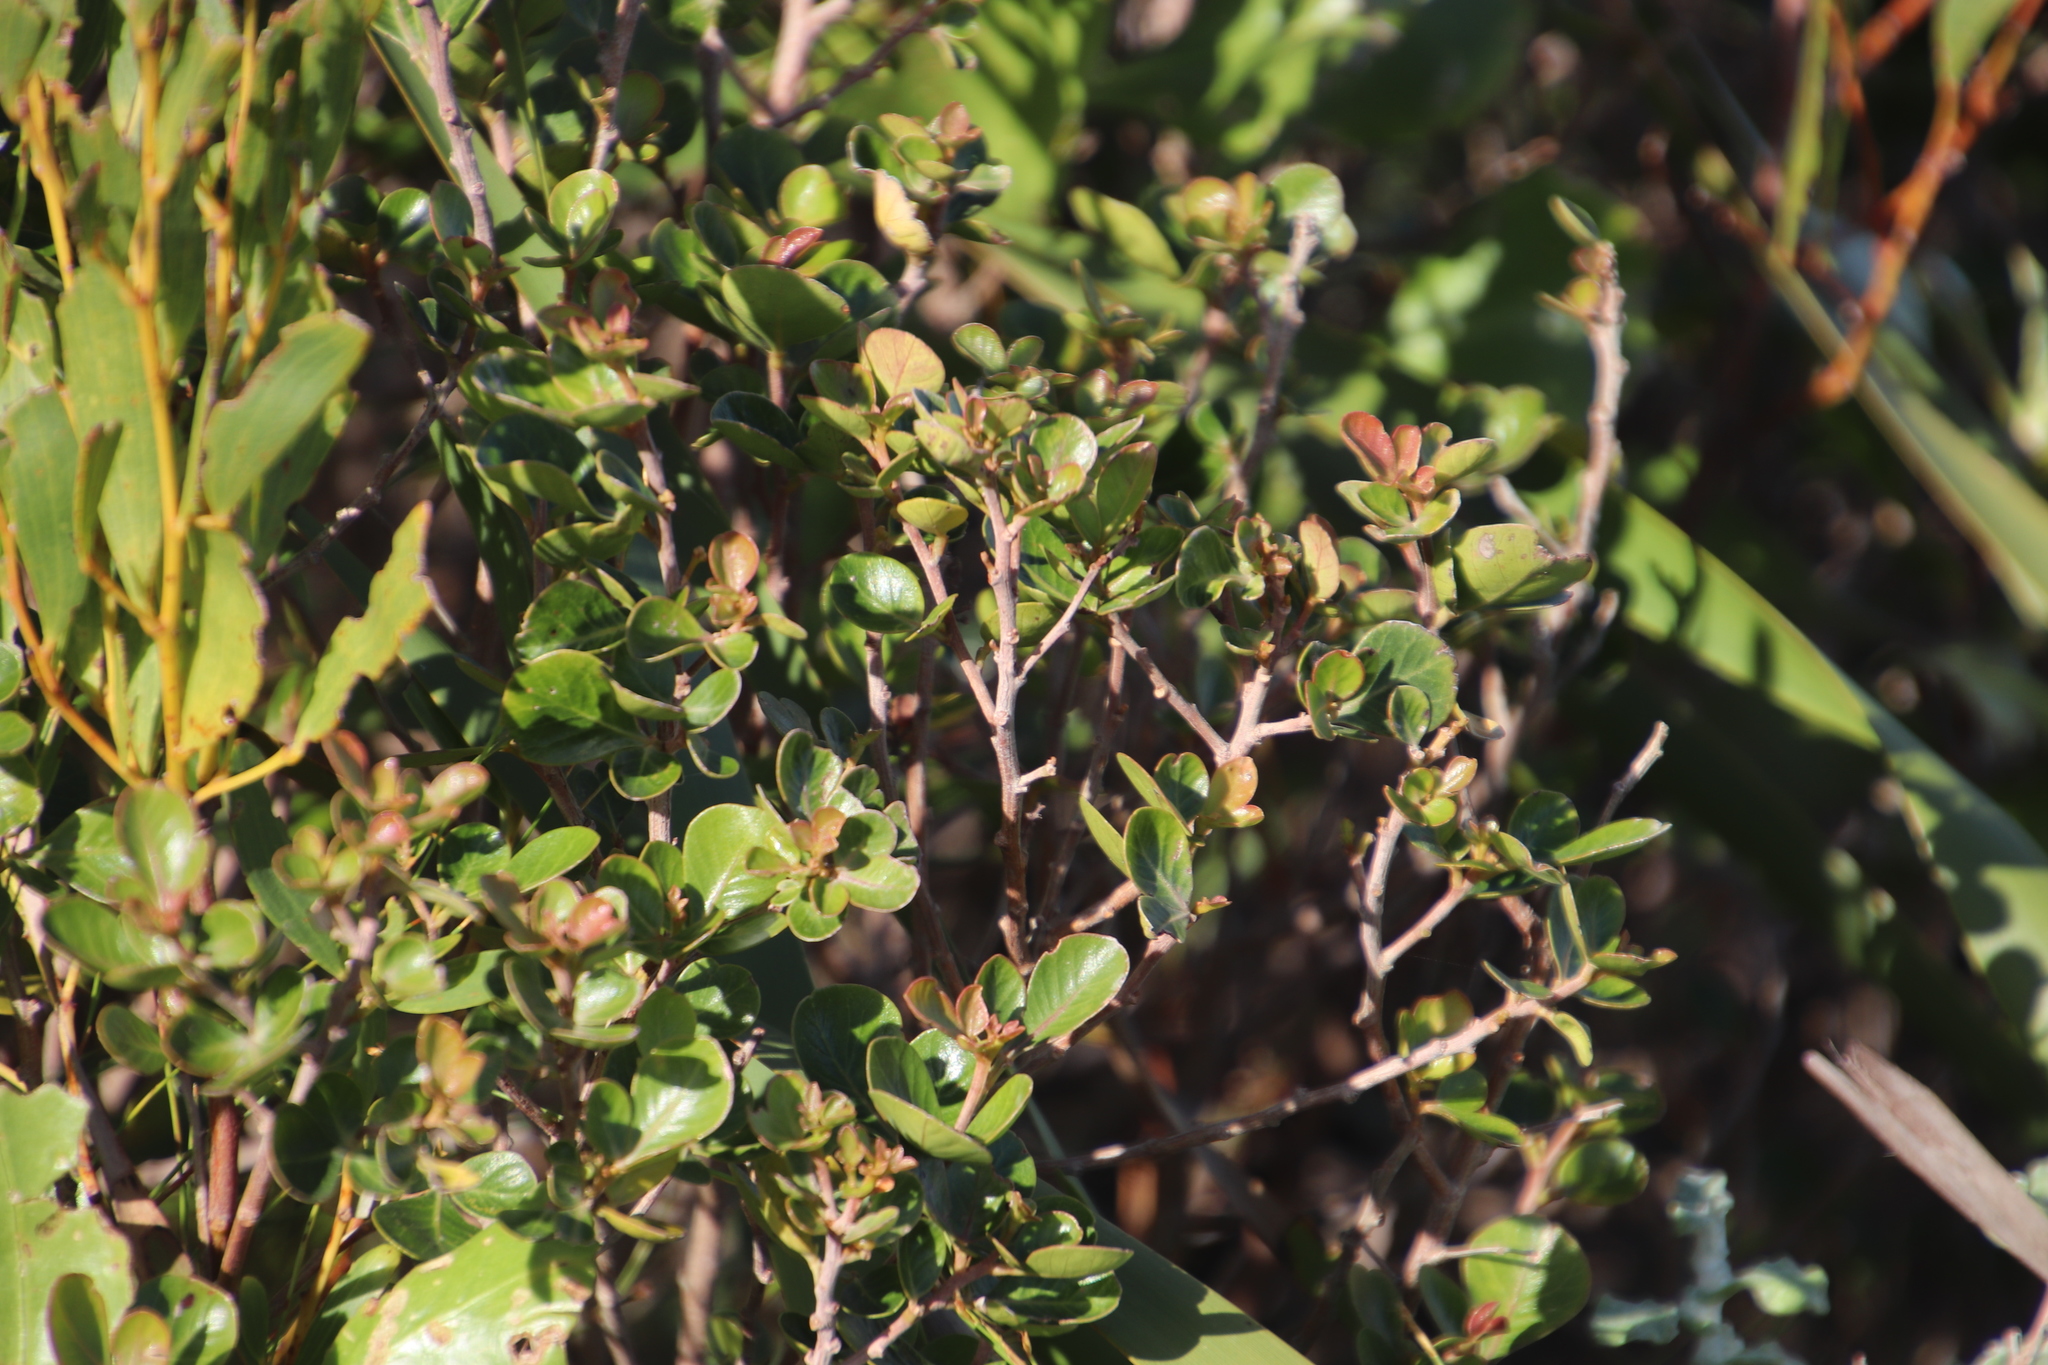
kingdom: Plantae
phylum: Tracheophyta
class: Magnoliopsida
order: Sapindales
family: Anacardiaceae
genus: Searsia
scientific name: Searsia lucida
